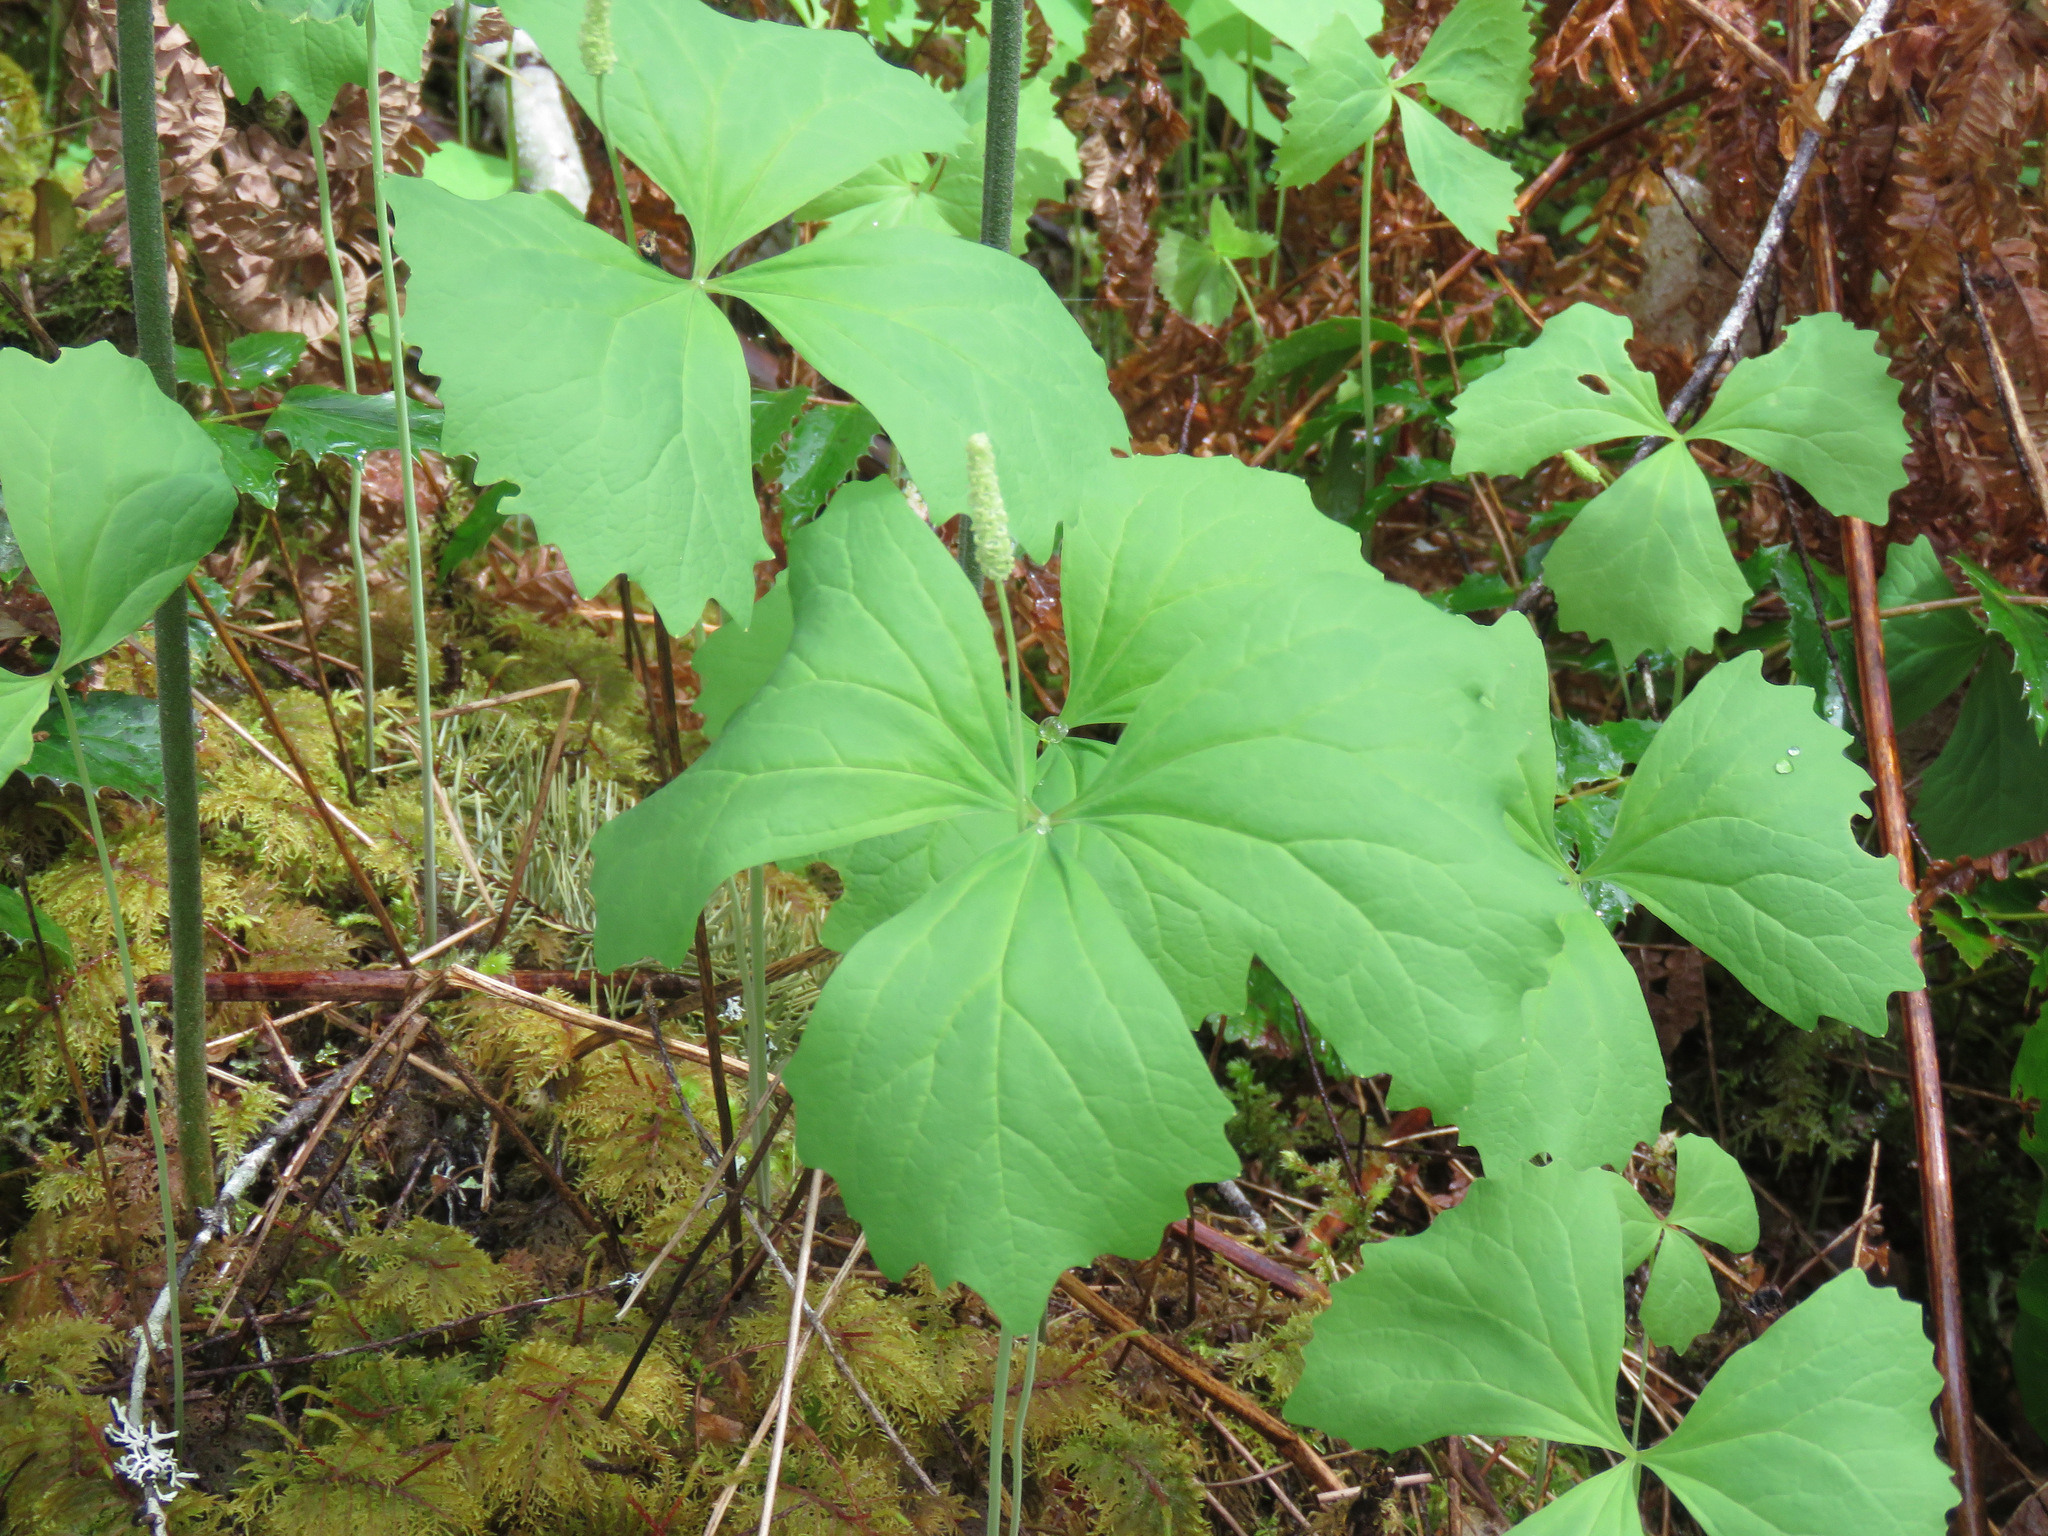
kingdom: Plantae
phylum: Tracheophyta
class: Magnoliopsida
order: Ranunculales
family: Berberidaceae
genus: Achlys
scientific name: Achlys triphylla
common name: Vanilla-leaf
